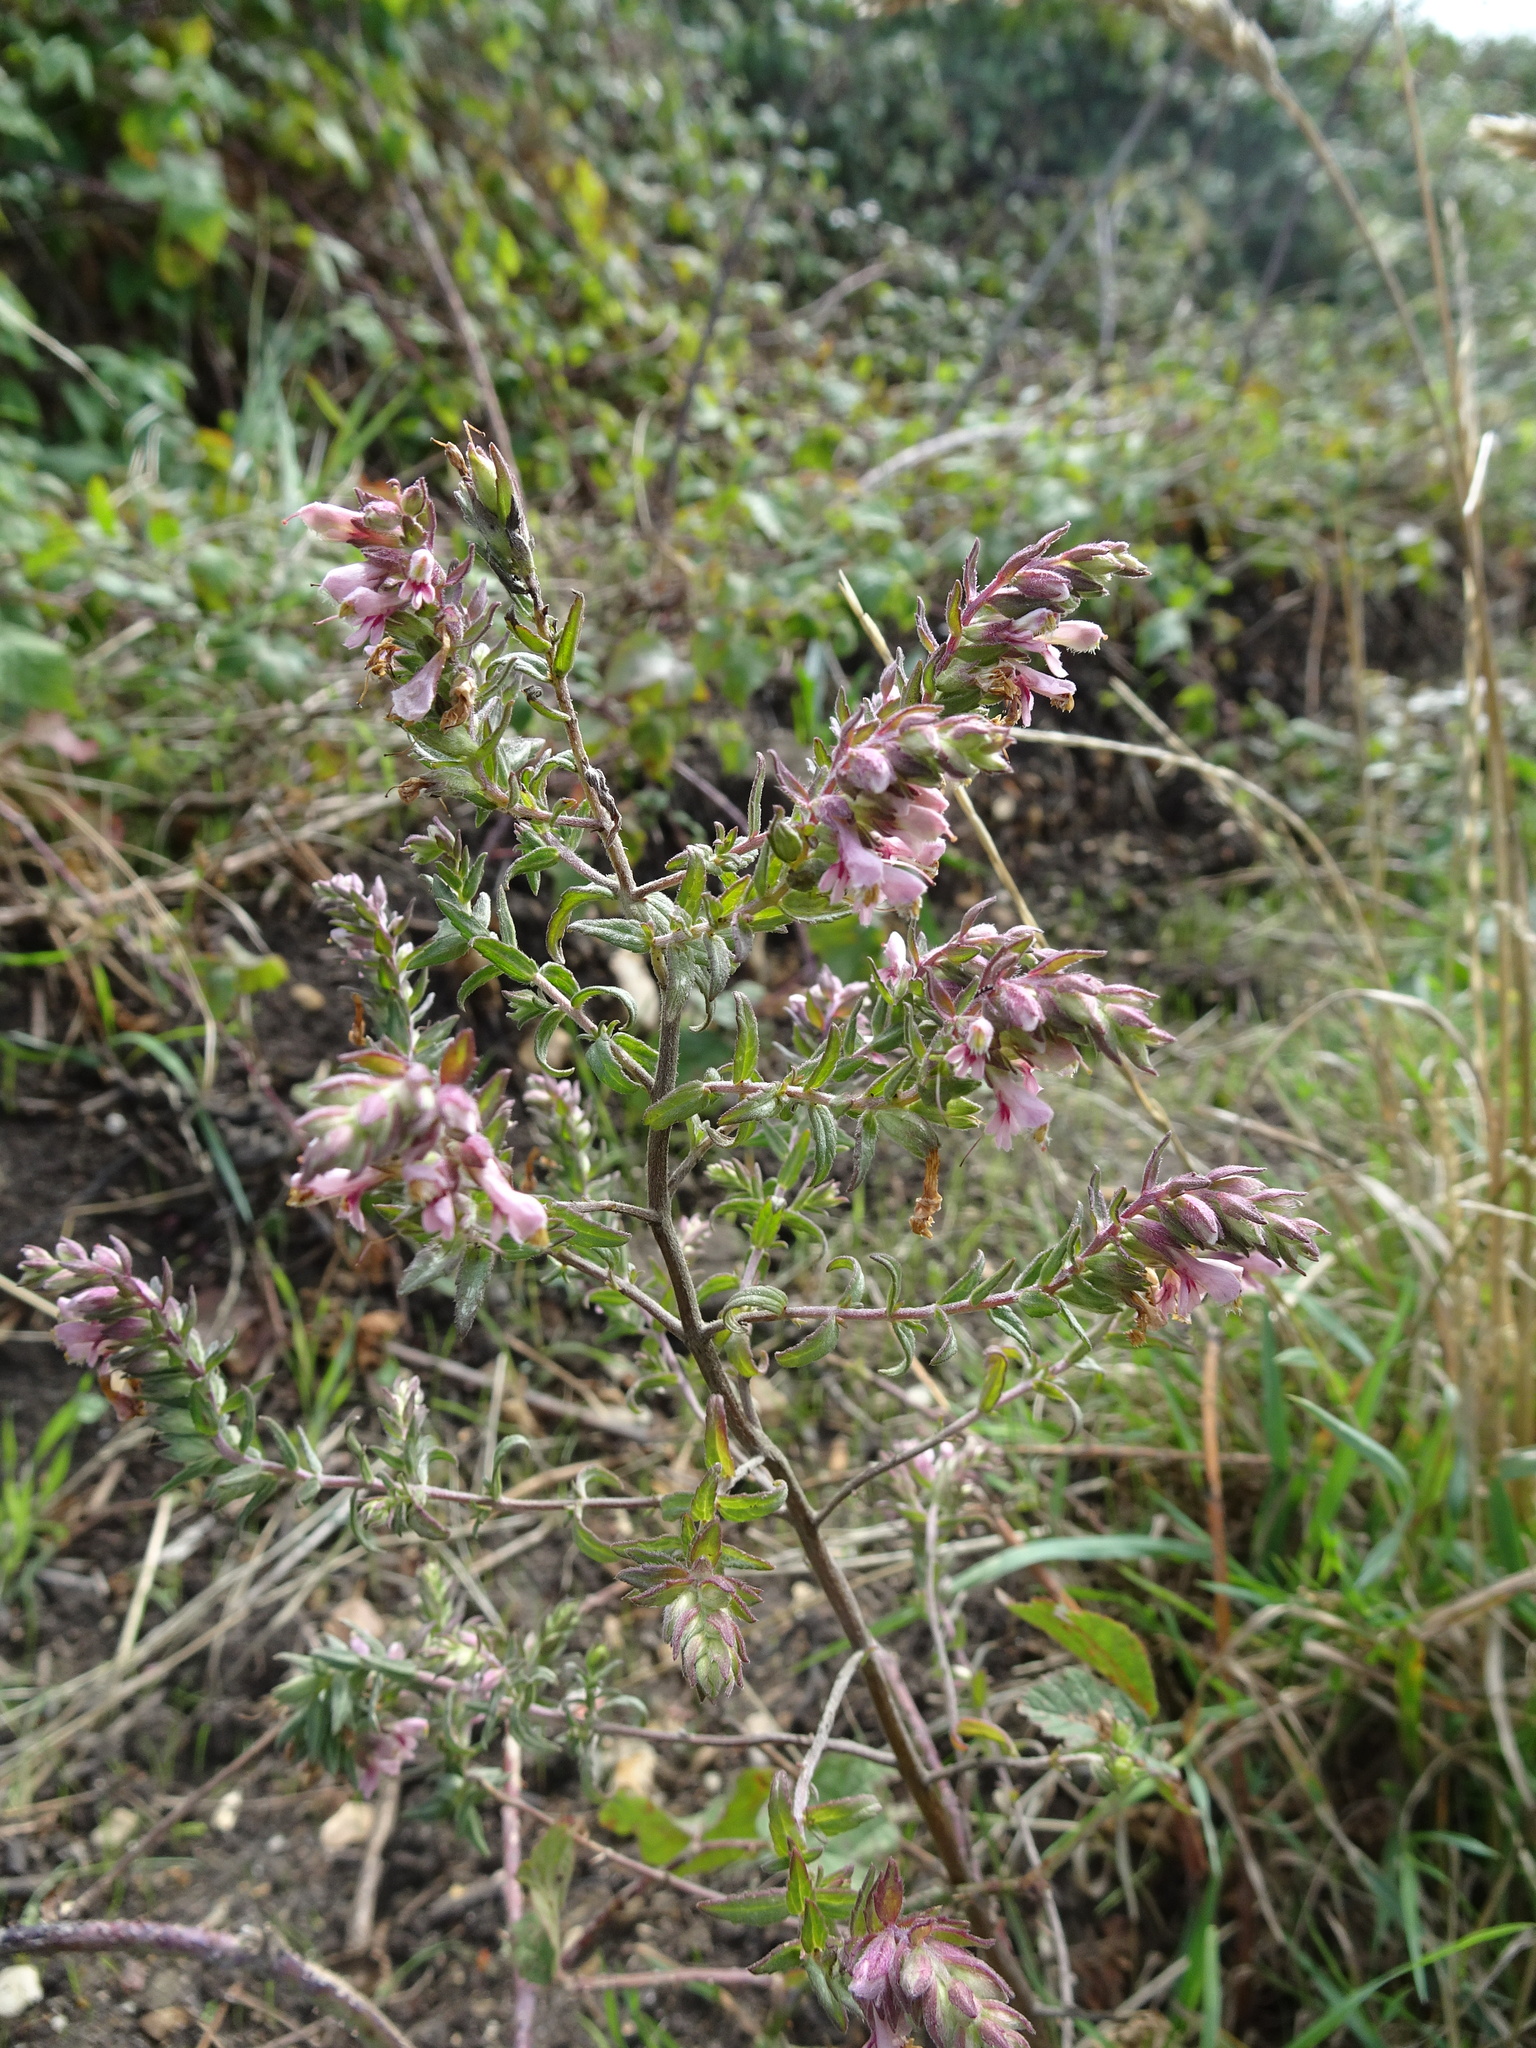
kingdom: Plantae
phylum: Tracheophyta
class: Magnoliopsida
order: Lamiales
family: Orobanchaceae
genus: Odontites
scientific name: Odontites vulgaris
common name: Broomrape
